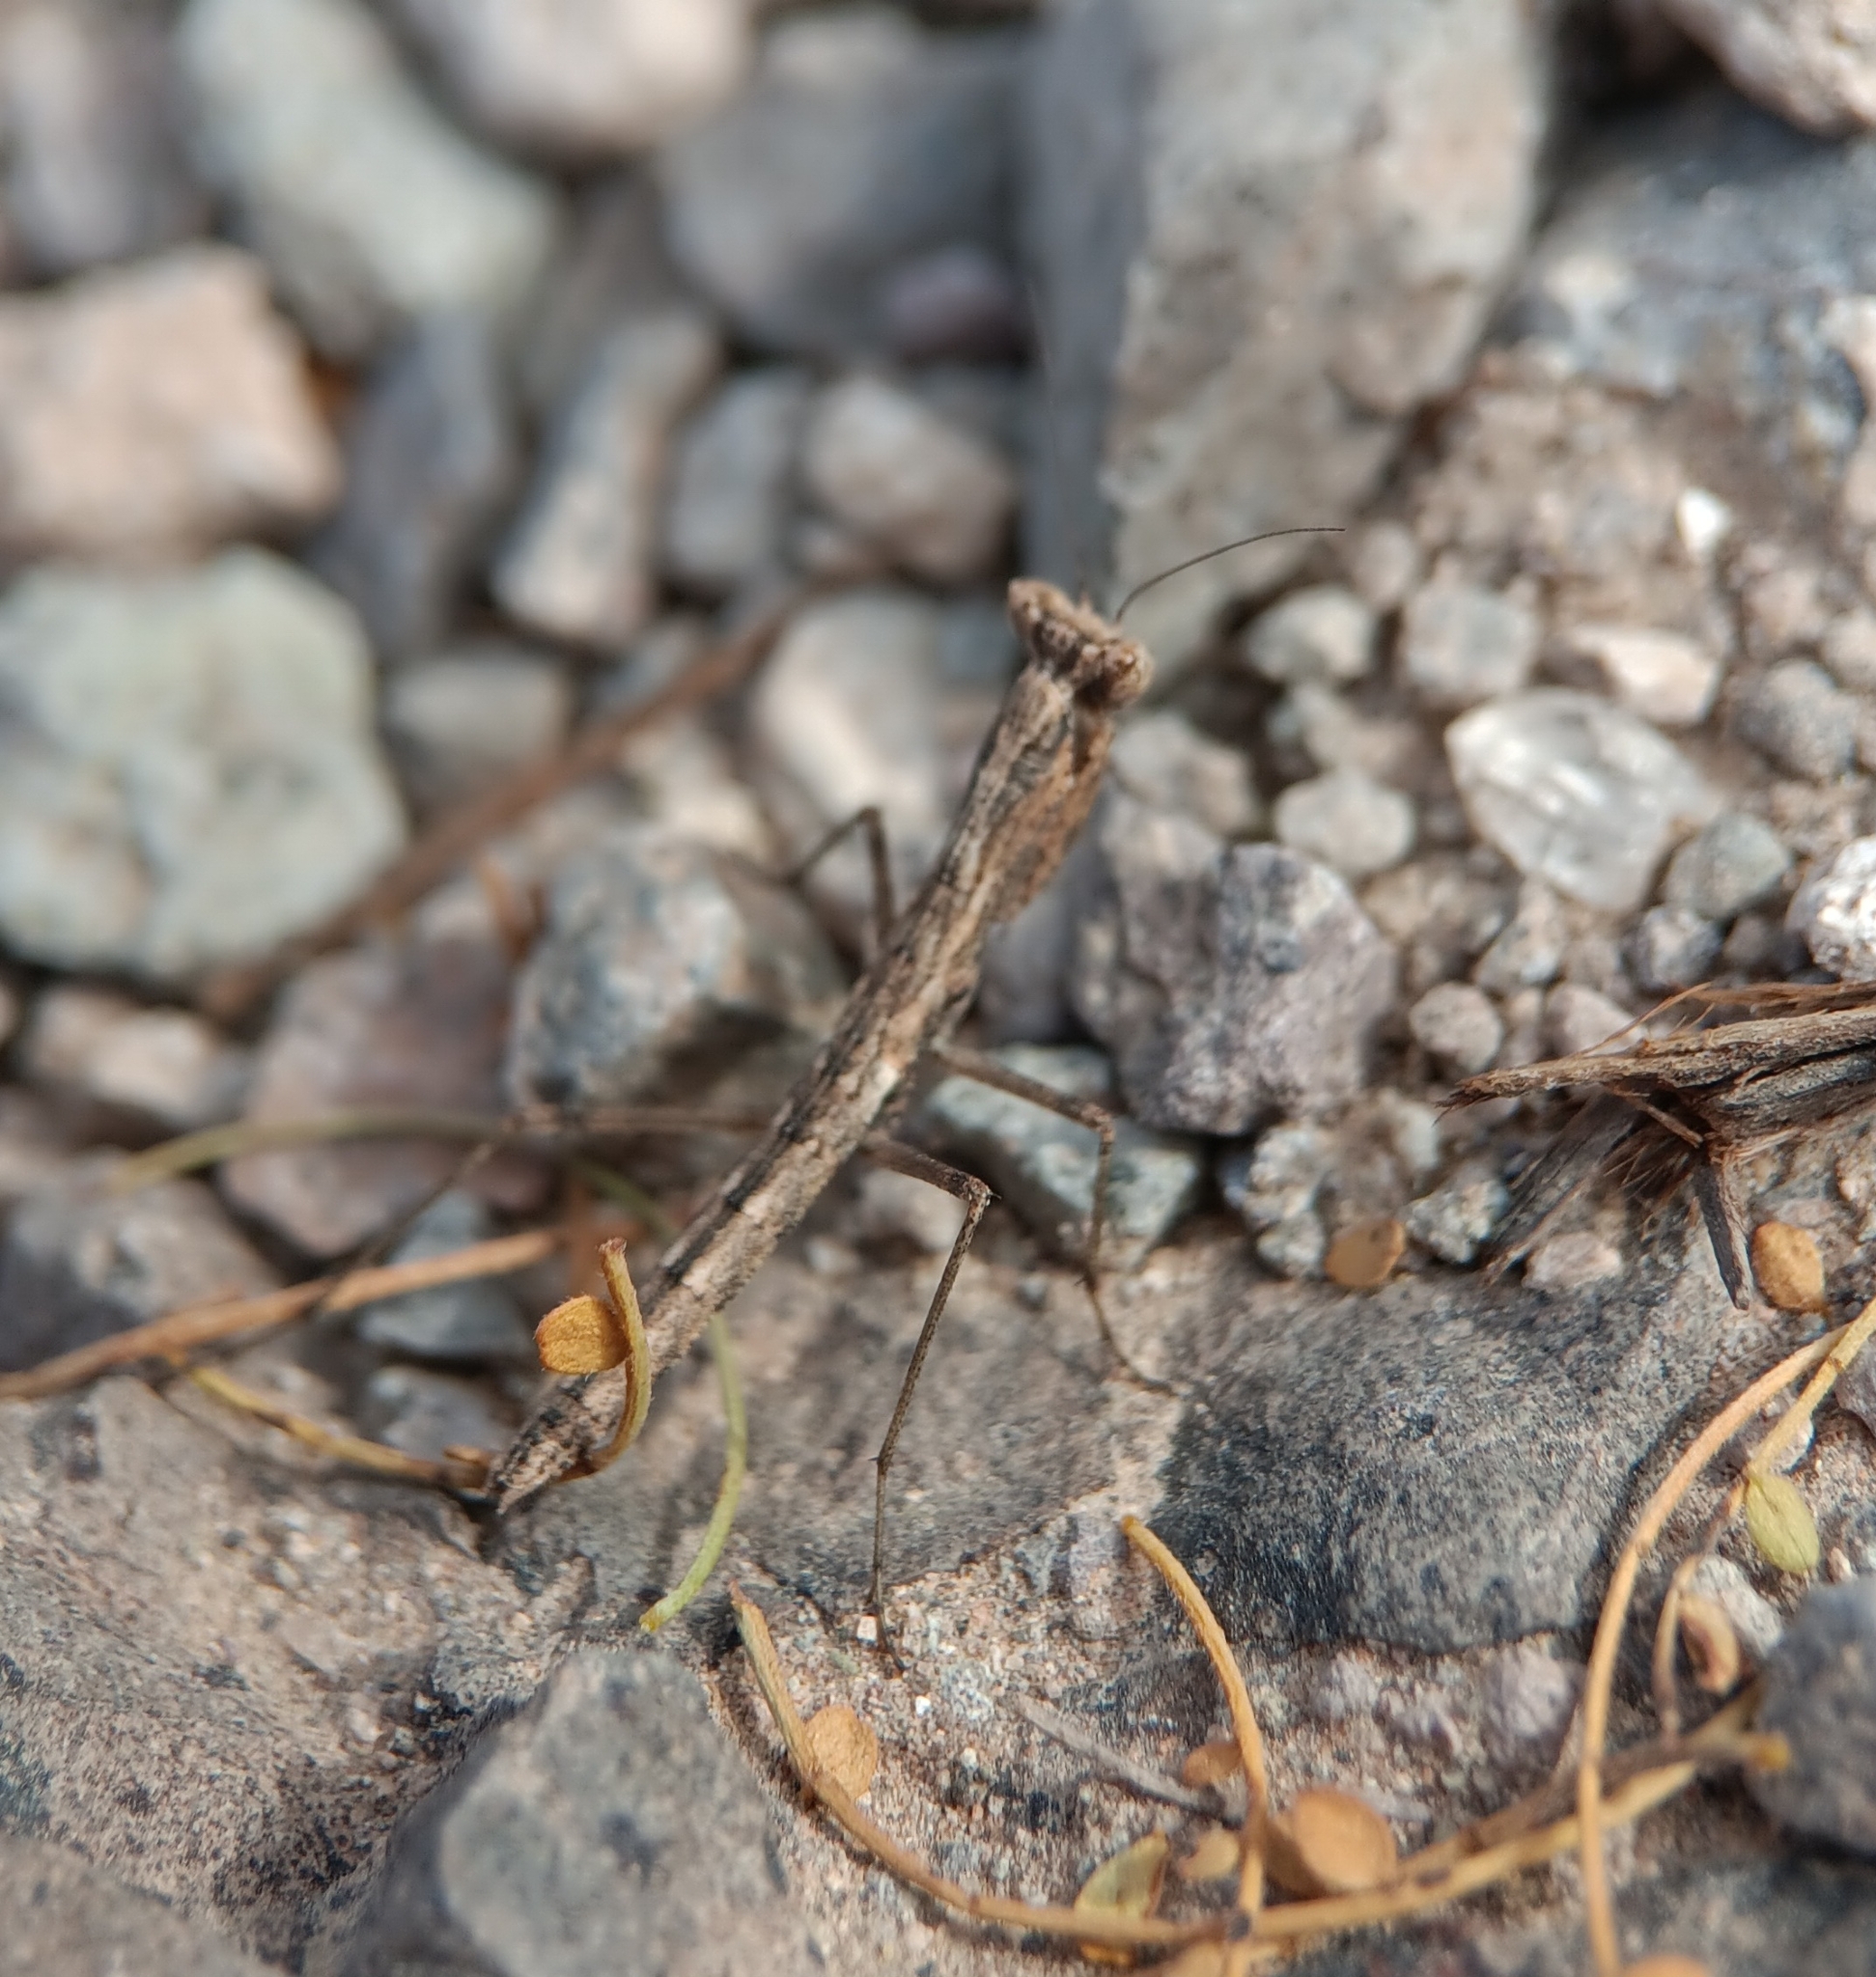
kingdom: Animalia
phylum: Arthropoda
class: Insecta
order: Mantodea
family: Amelidae
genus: Litaneutria
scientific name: Litaneutria
